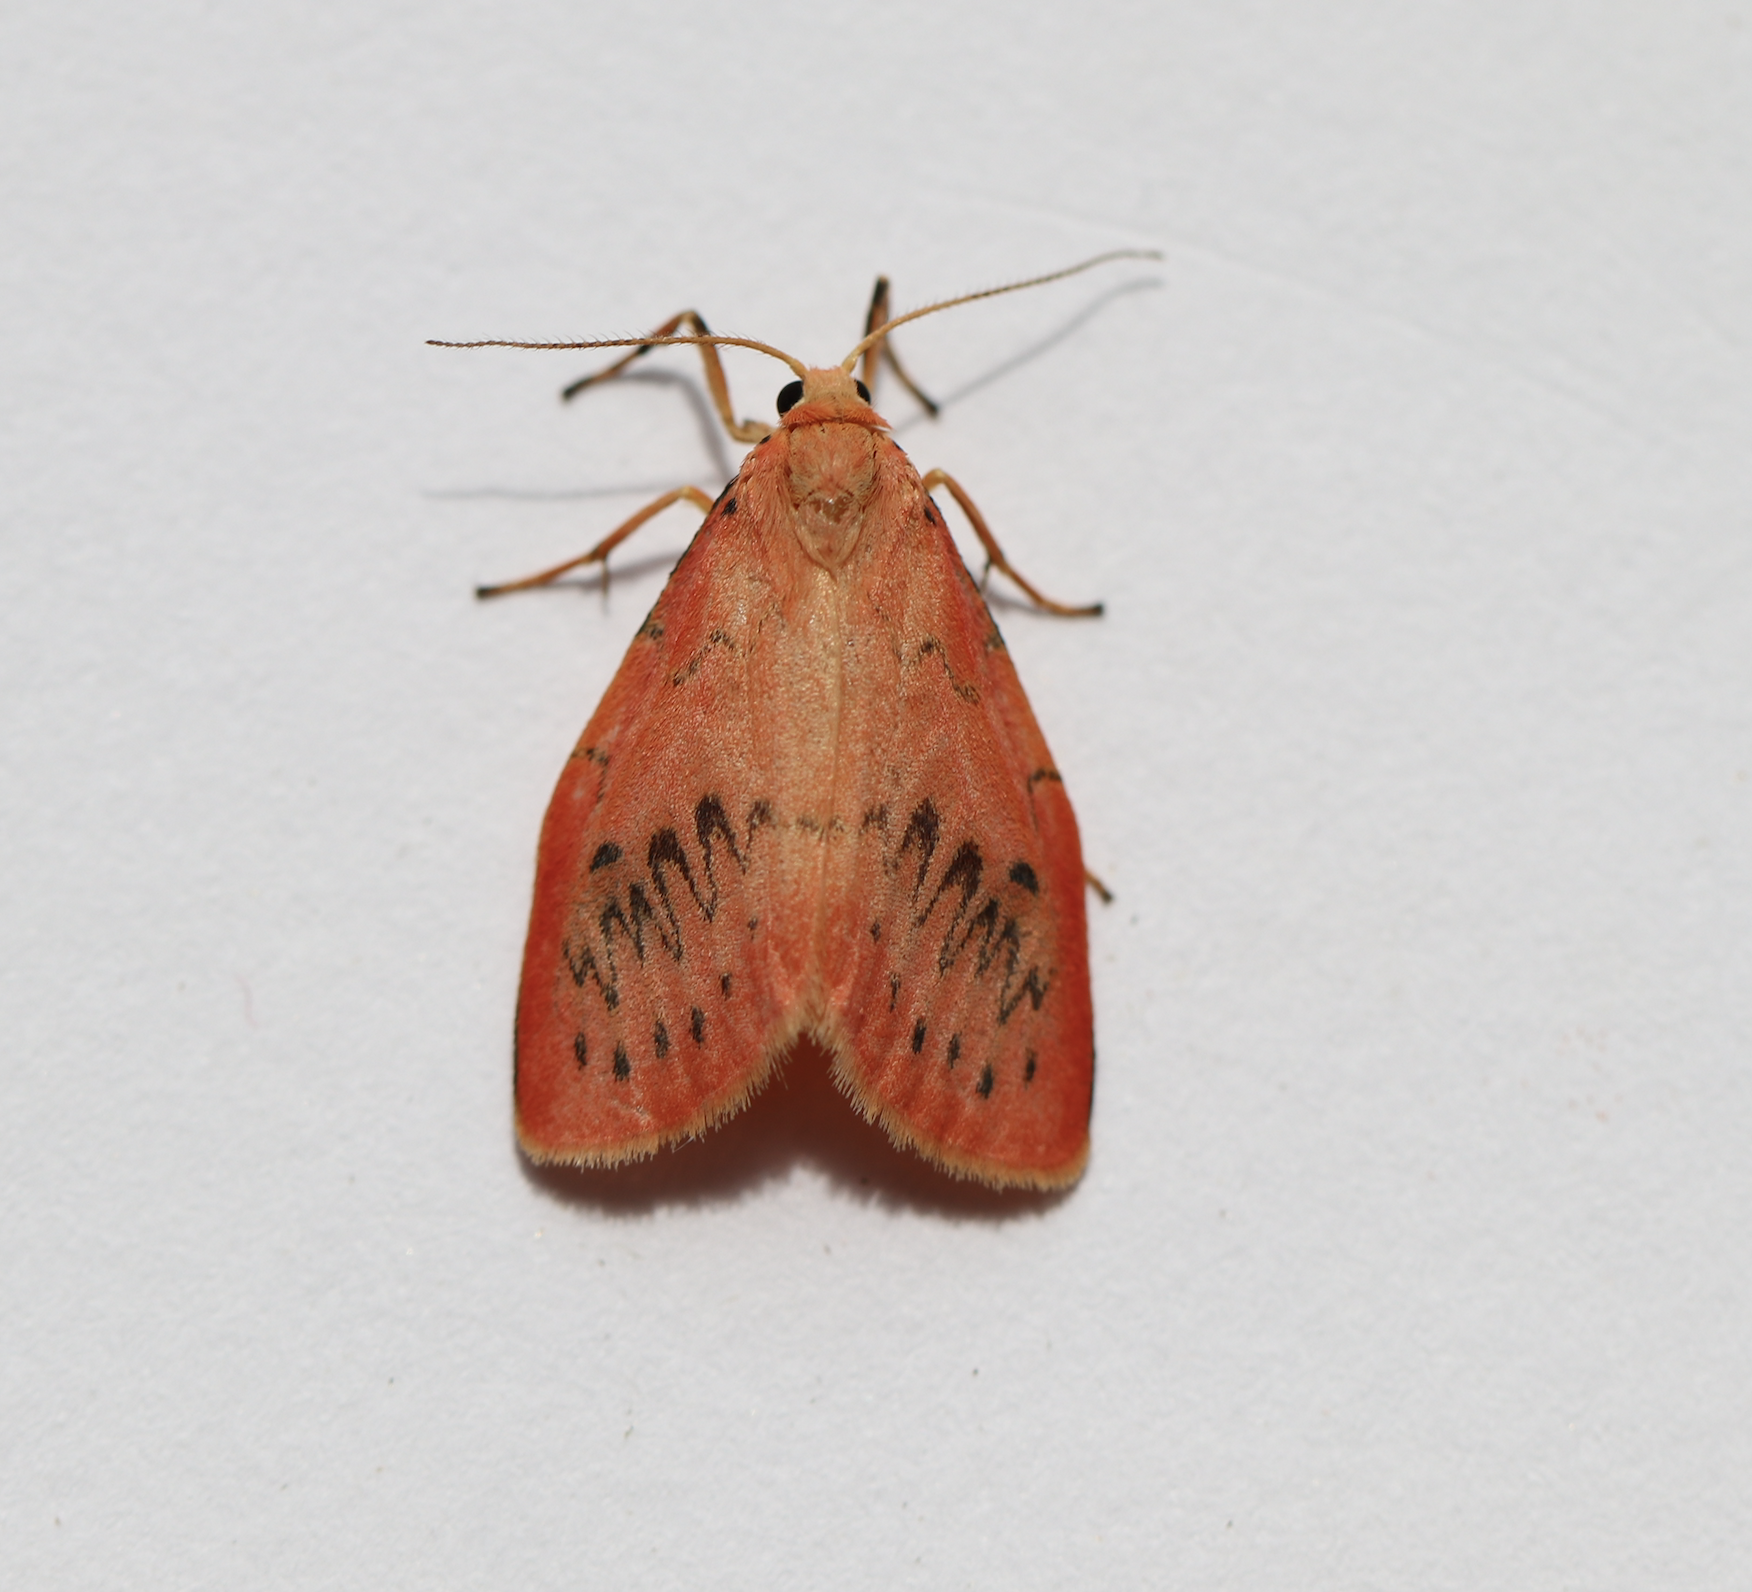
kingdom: Animalia
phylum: Arthropoda
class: Insecta
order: Lepidoptera
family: Erebidae
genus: Miltochrista
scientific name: Miltochrista miniata
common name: Rosy footman
